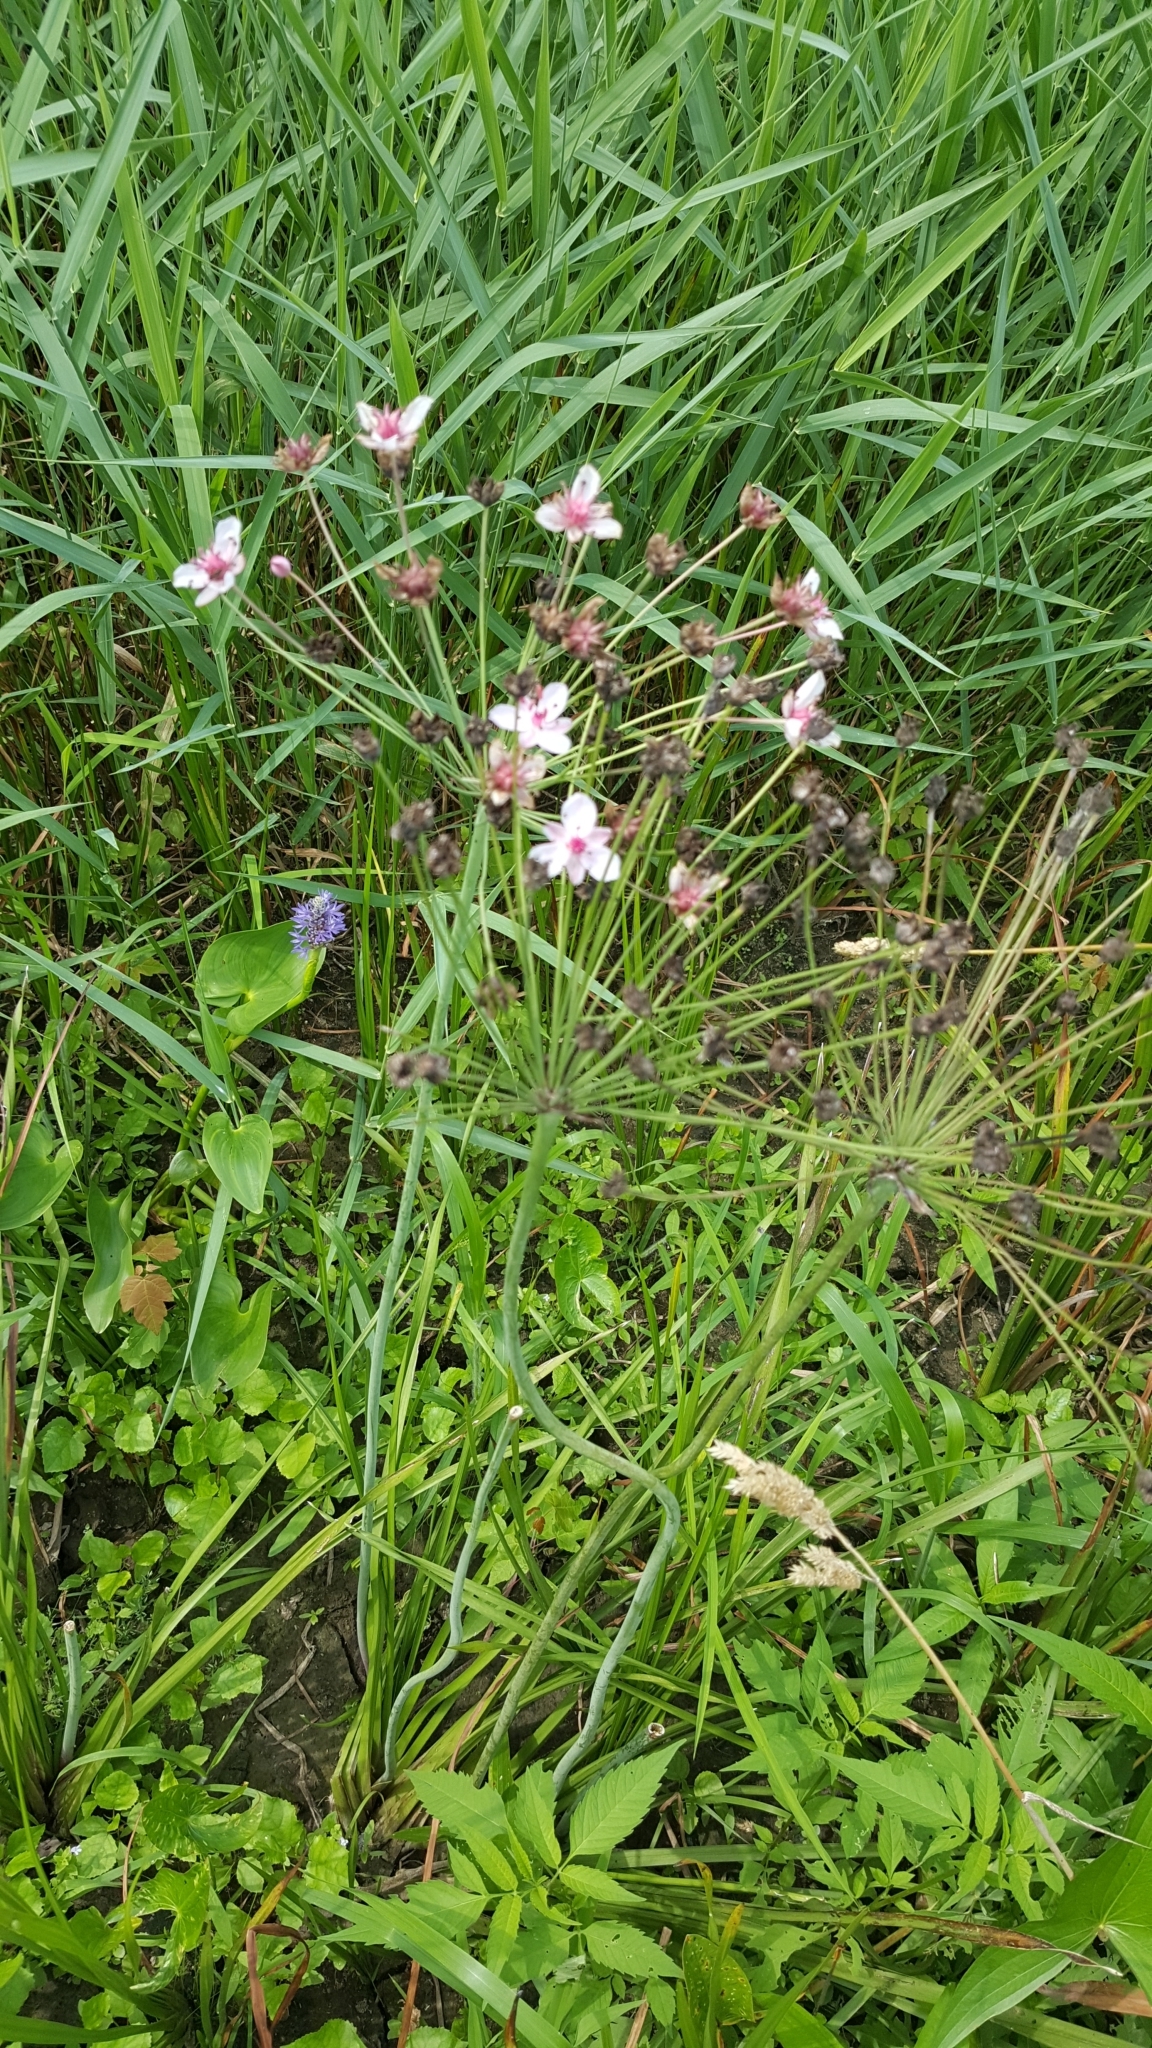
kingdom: Plantae
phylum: Tracheophyta
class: Liliopsida
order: Alismatales
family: Butomaceae
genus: Butomus
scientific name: Butomus umbellatus
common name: Flowering-rush
